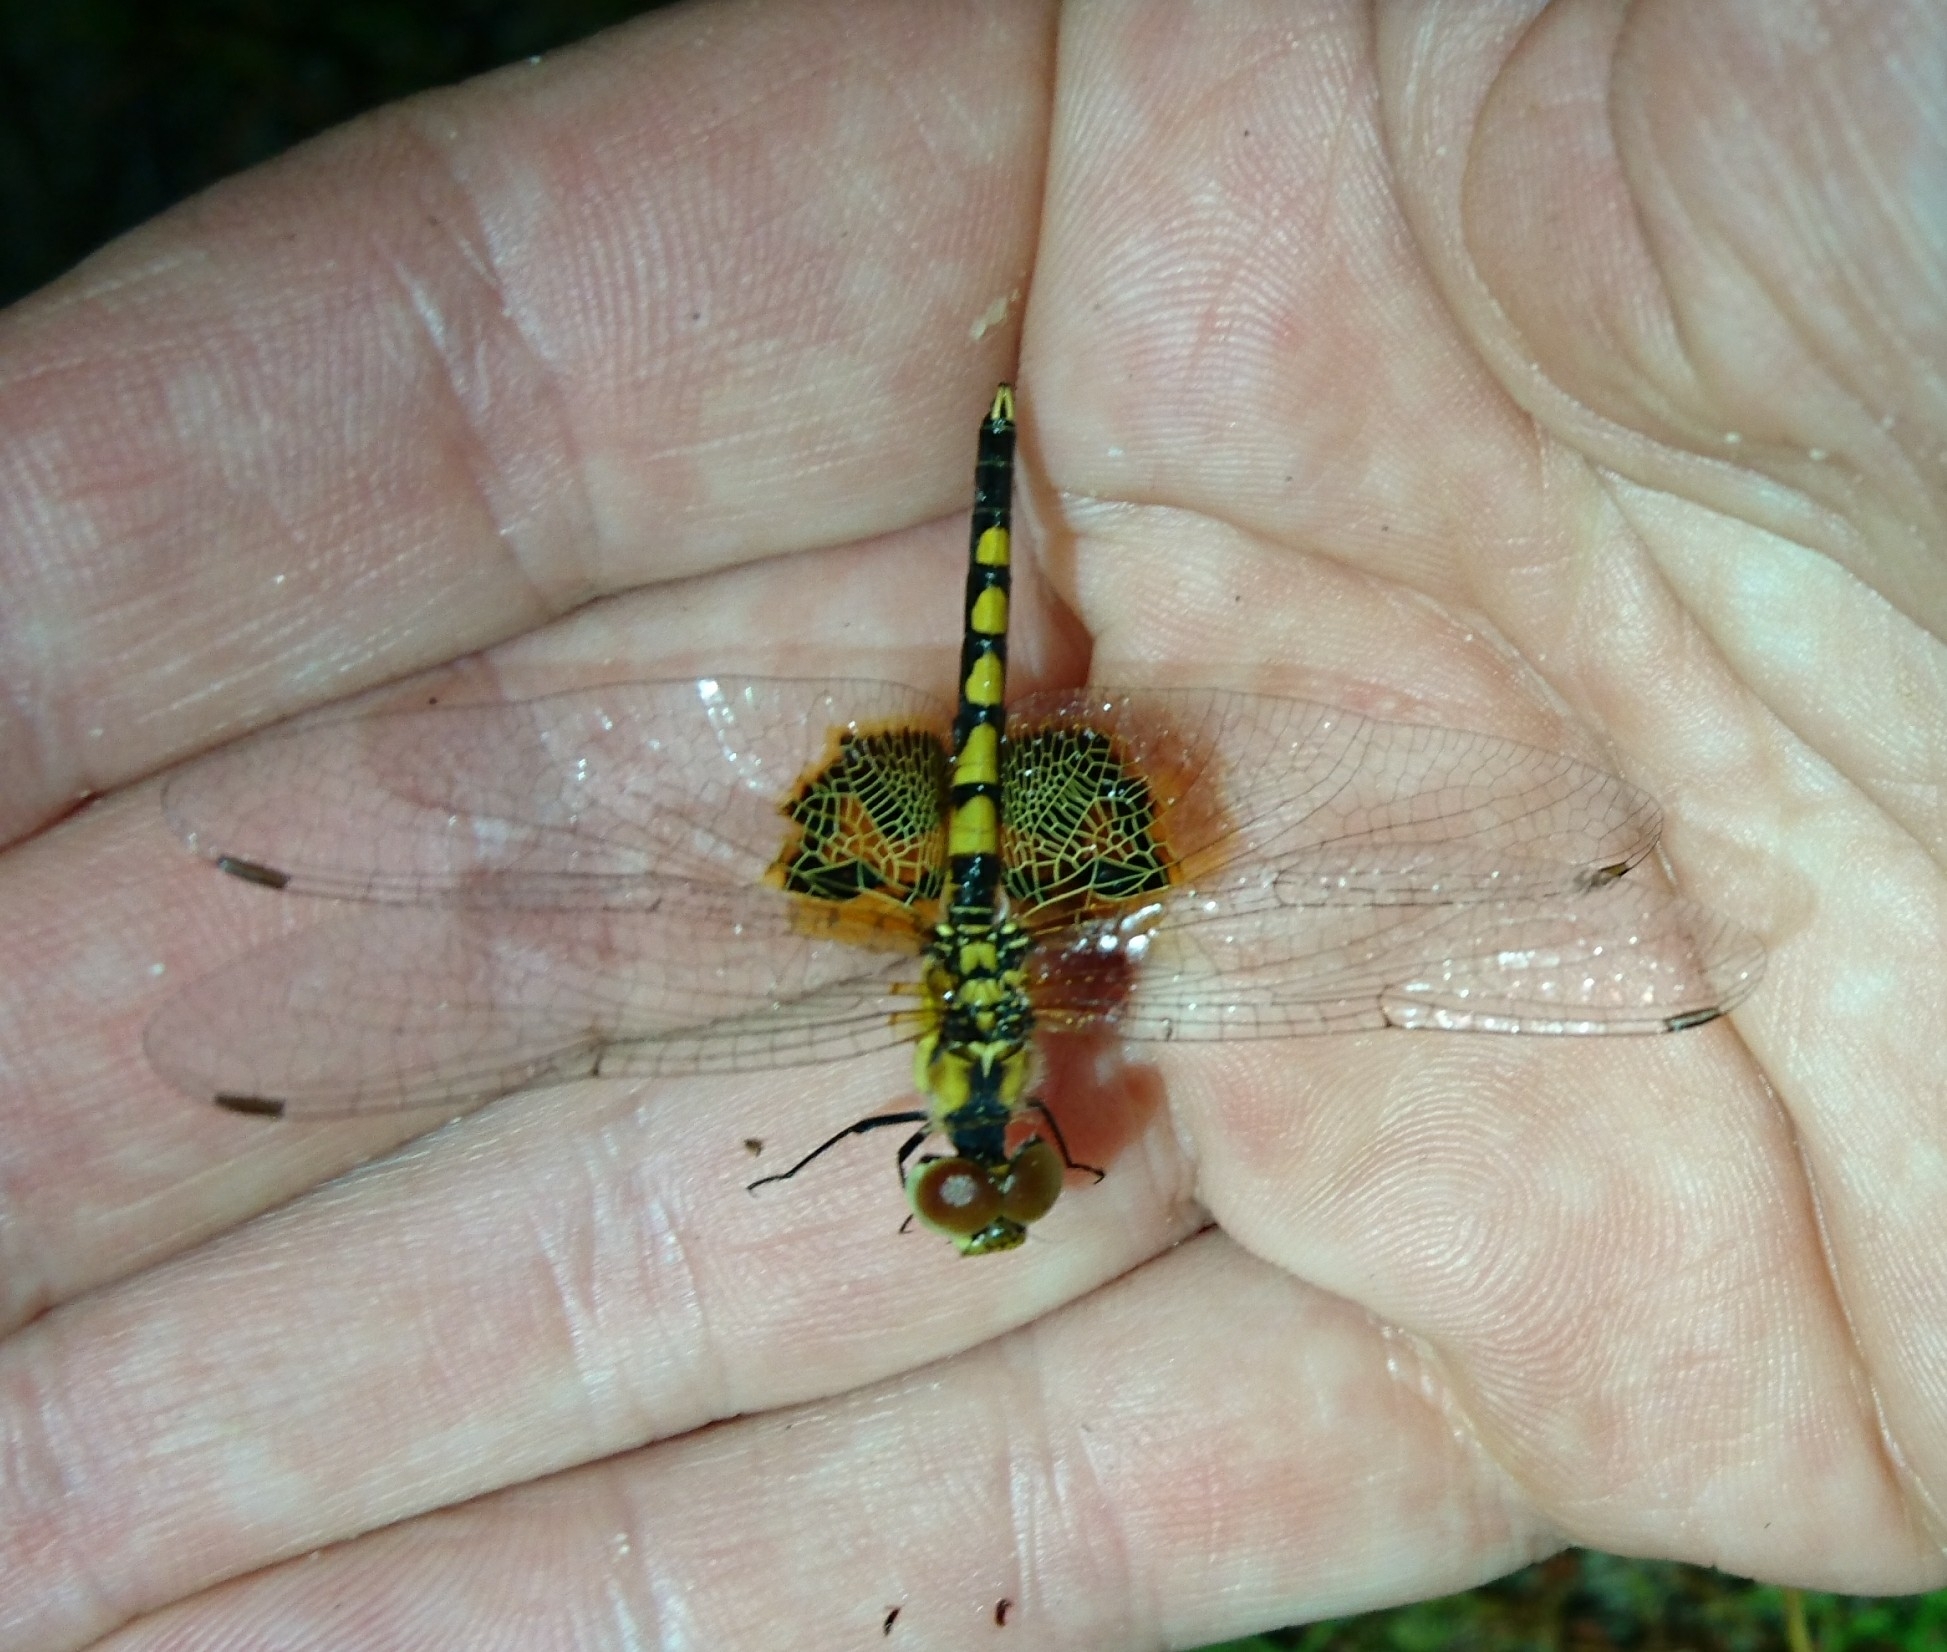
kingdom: Animalia
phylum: Arthropoda
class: Insecta
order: Odonata
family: Libellulidae
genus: Celithemis
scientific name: Celithemis amanda
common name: Amanda's pennant
